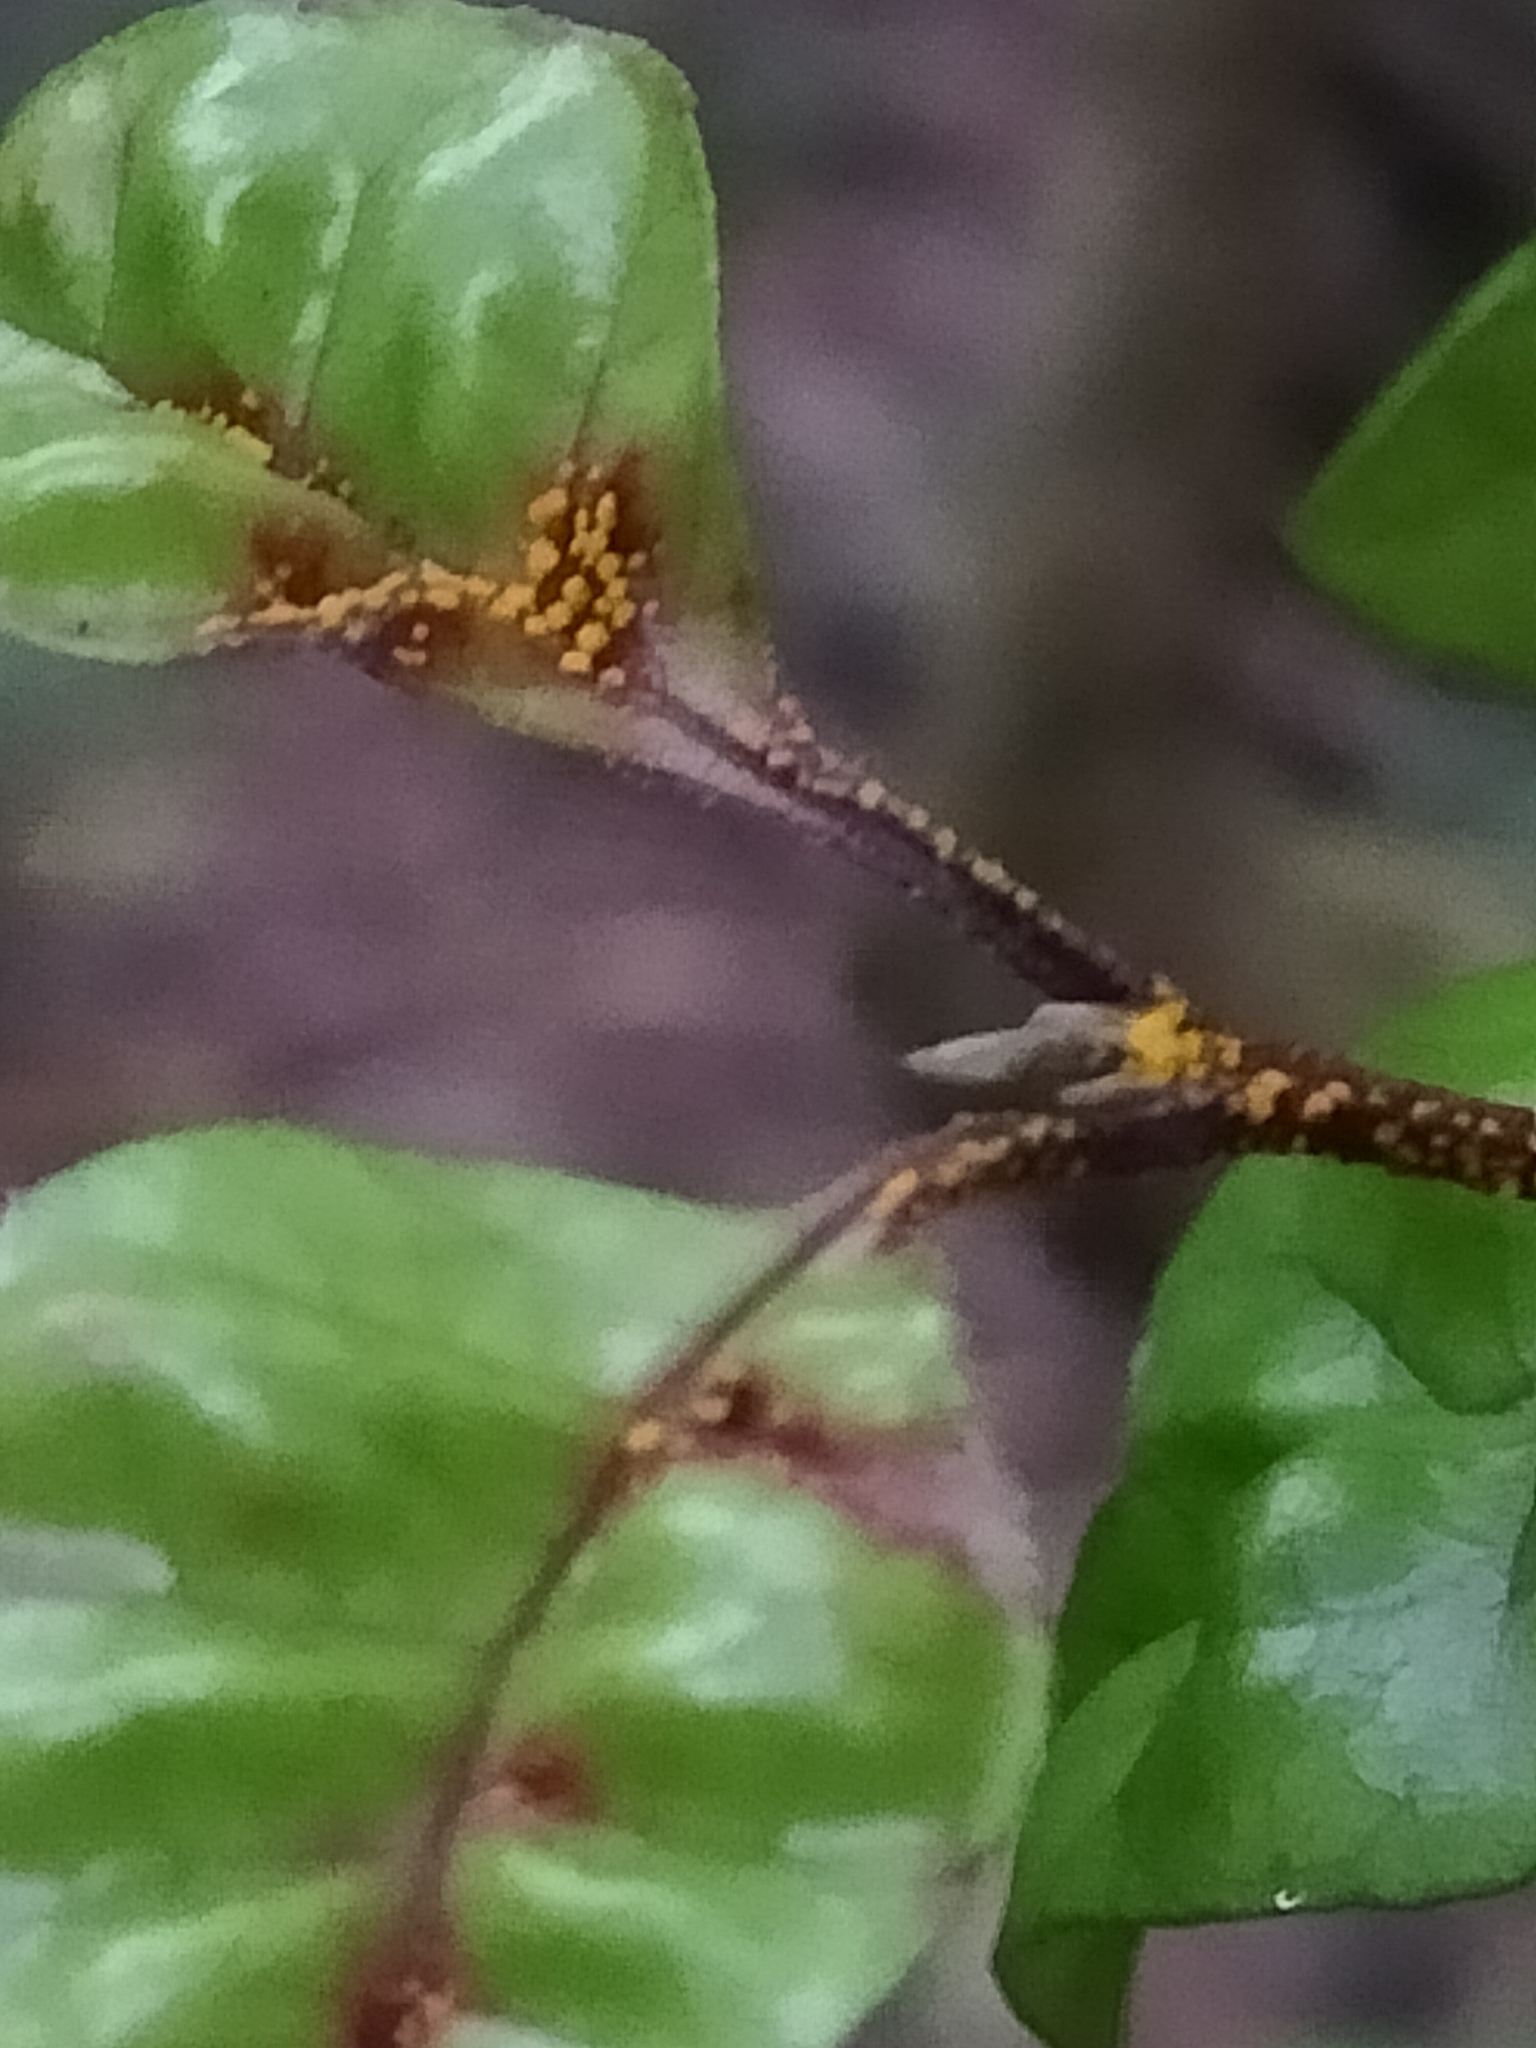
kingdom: Fungi
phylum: Basidiomycota
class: Pucciniomycetes
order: Pucciniales
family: Sphaerophragmiaceae
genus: Austropuccinia
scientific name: Austropuccinia psidii
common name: Myrtle rust
